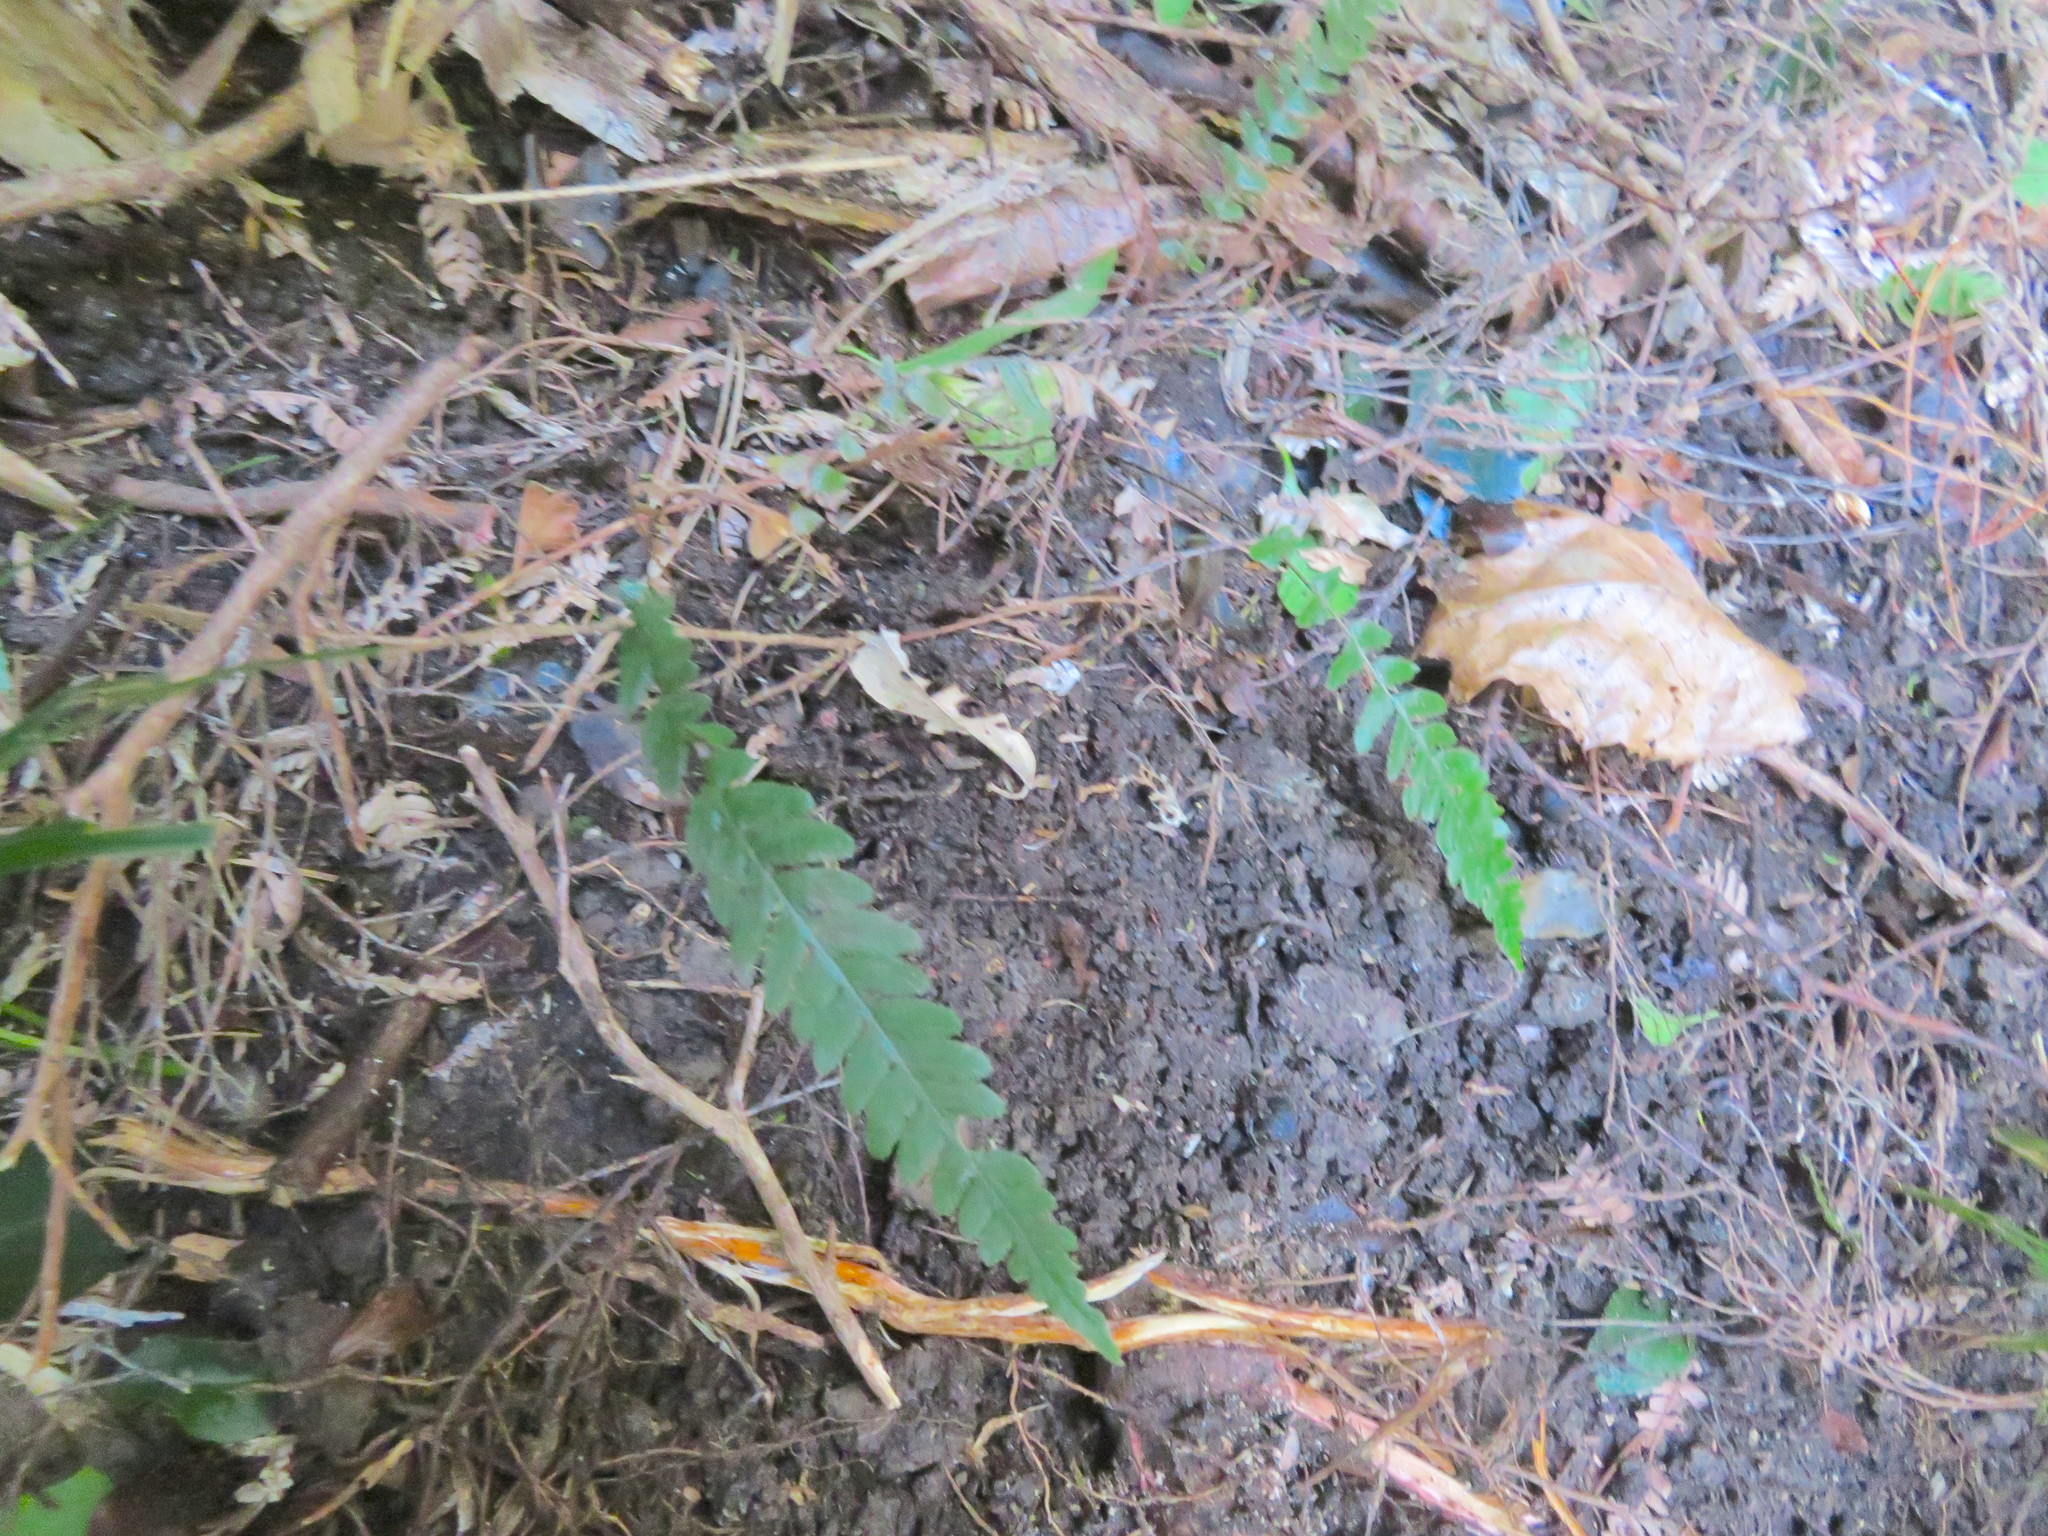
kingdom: Plantae
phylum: Tracheophyta
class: Polypodiopsida
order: Polypodiales
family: Blechnaceae
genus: Doodia
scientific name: Doodia australis
